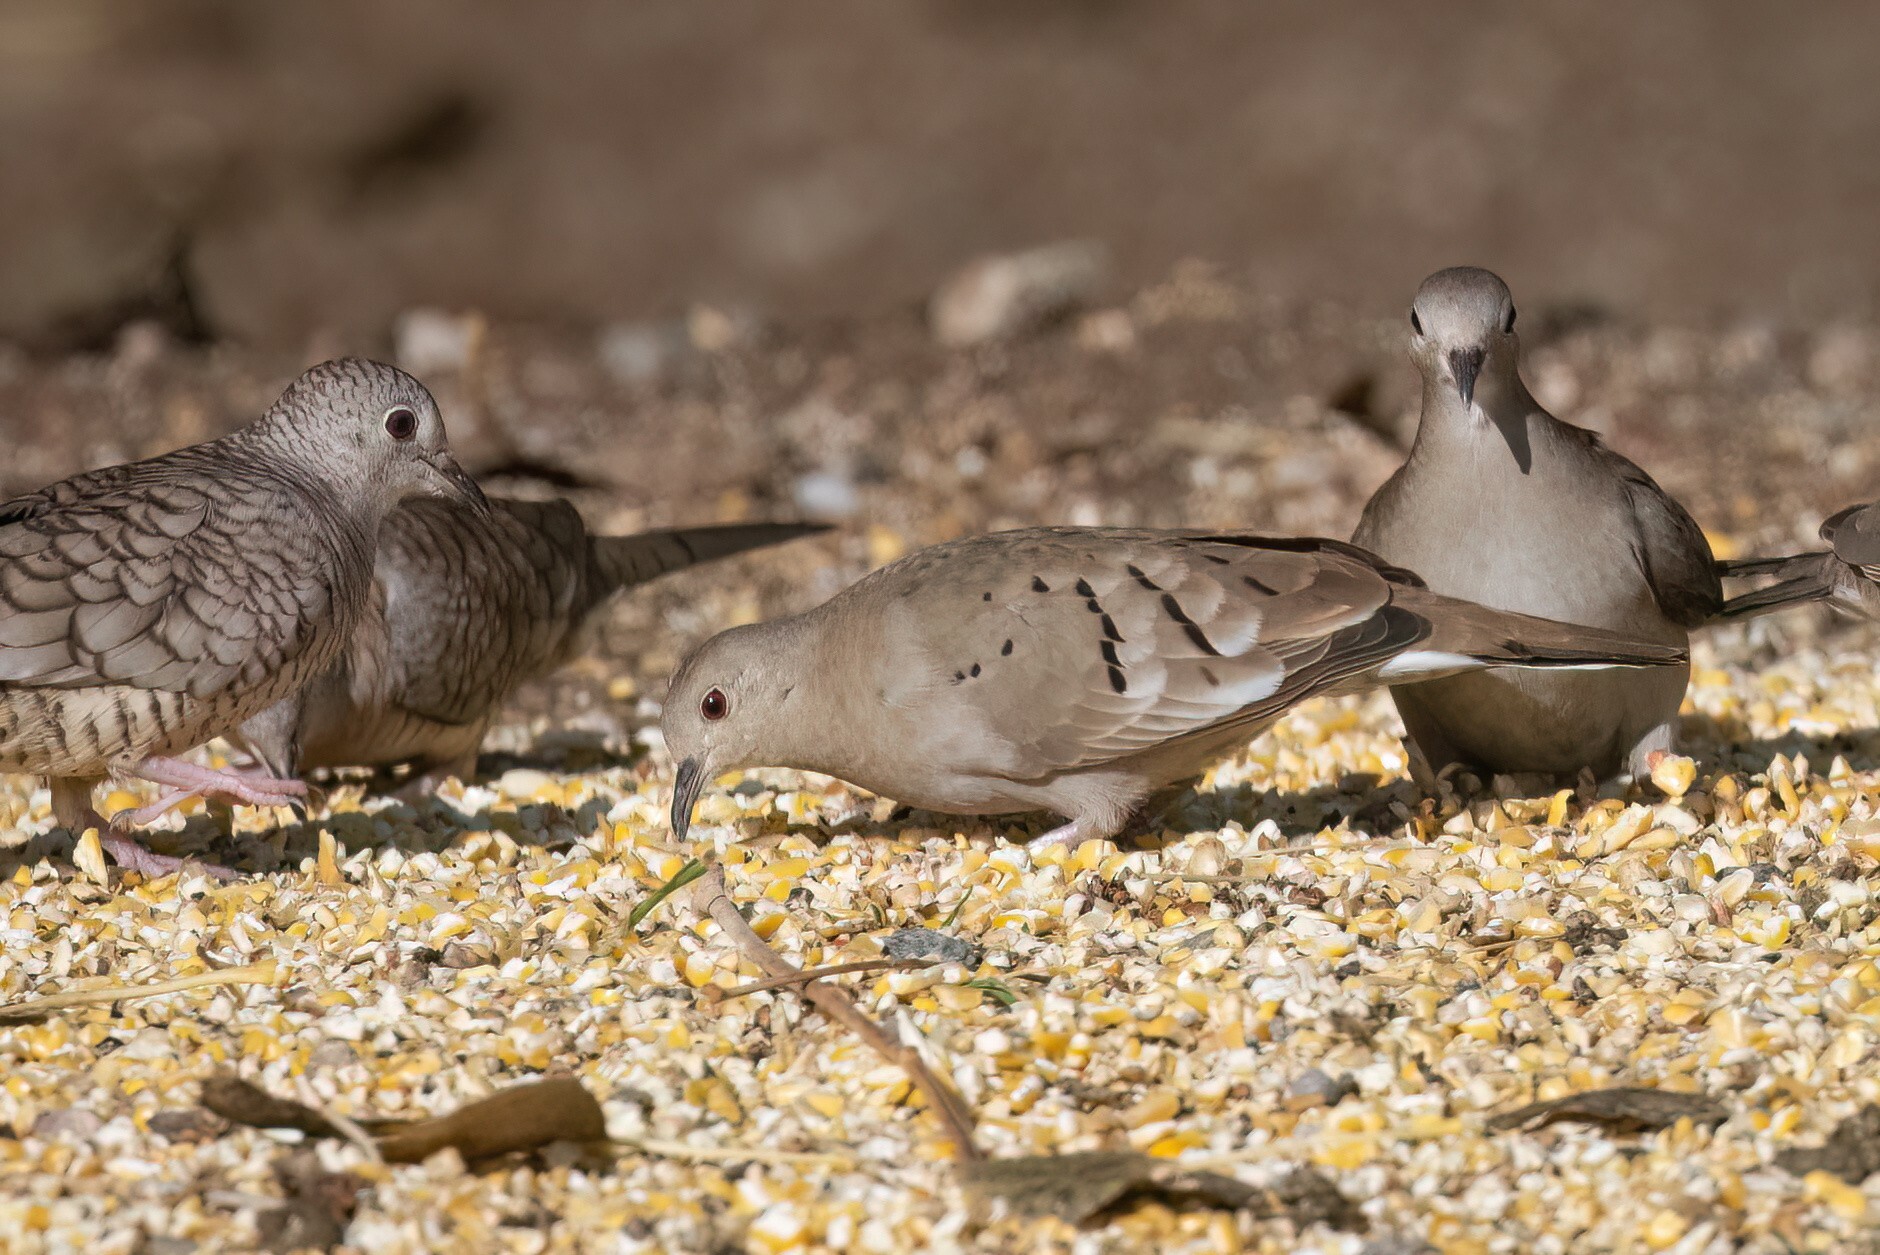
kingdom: Animalia
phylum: Chordata
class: Aves
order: Columbiformes
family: Columbidae
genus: Columbina
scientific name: Columbina talpacoti
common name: Ruddy ground dove
